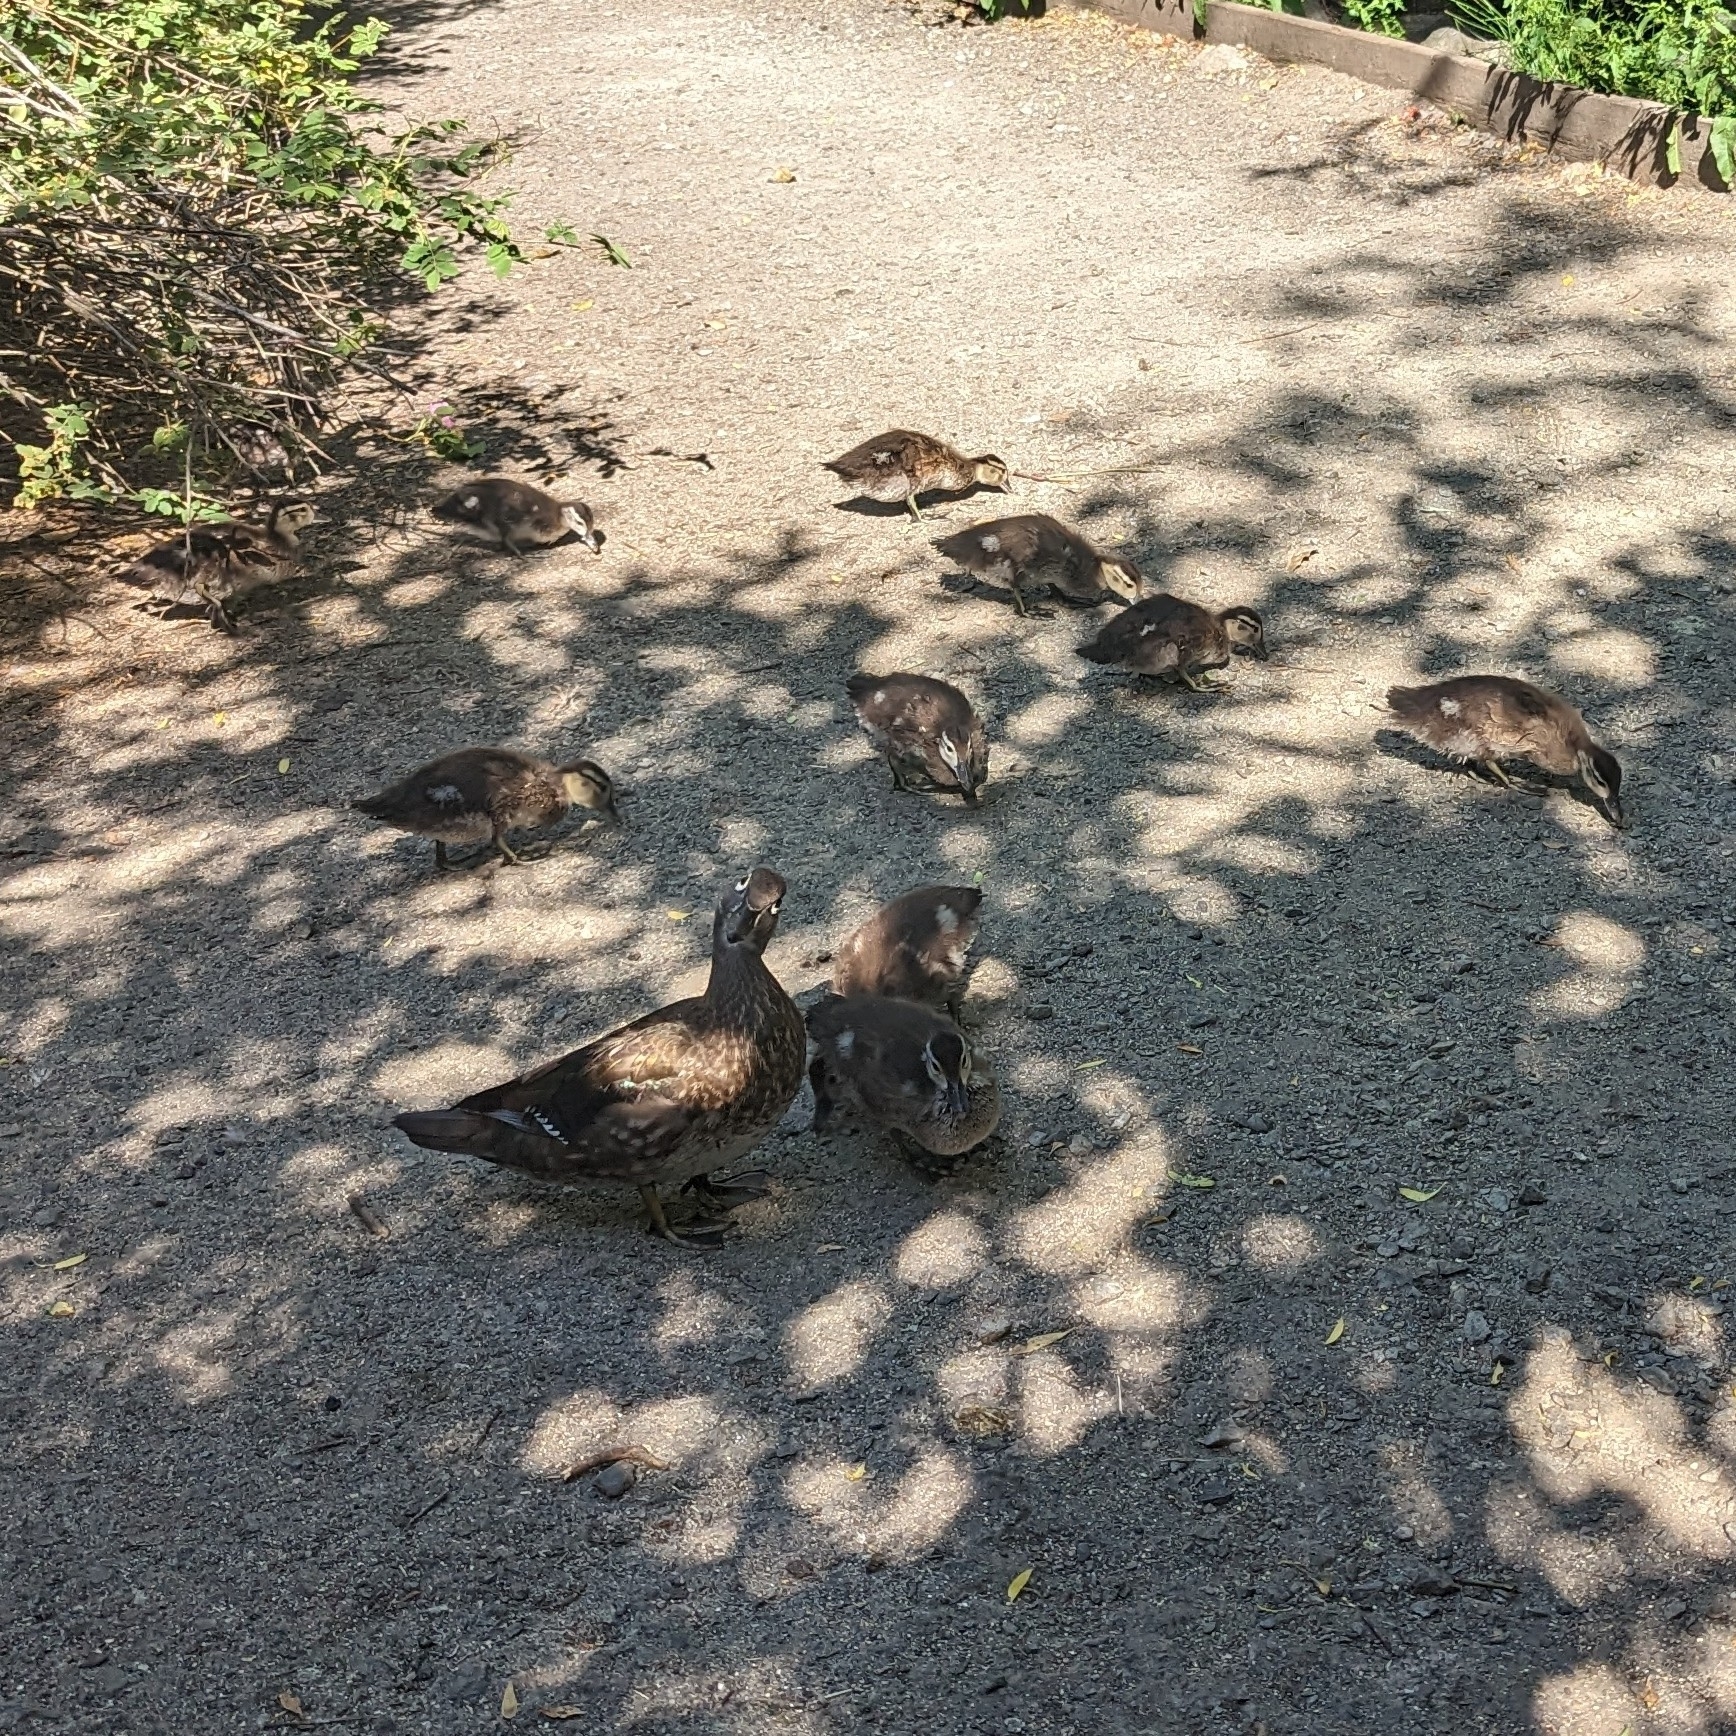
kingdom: Animalia
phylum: Chordata
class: Aves
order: Anseriformes
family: Anatidae
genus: Aix
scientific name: Aix sponsa
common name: Wood duck
